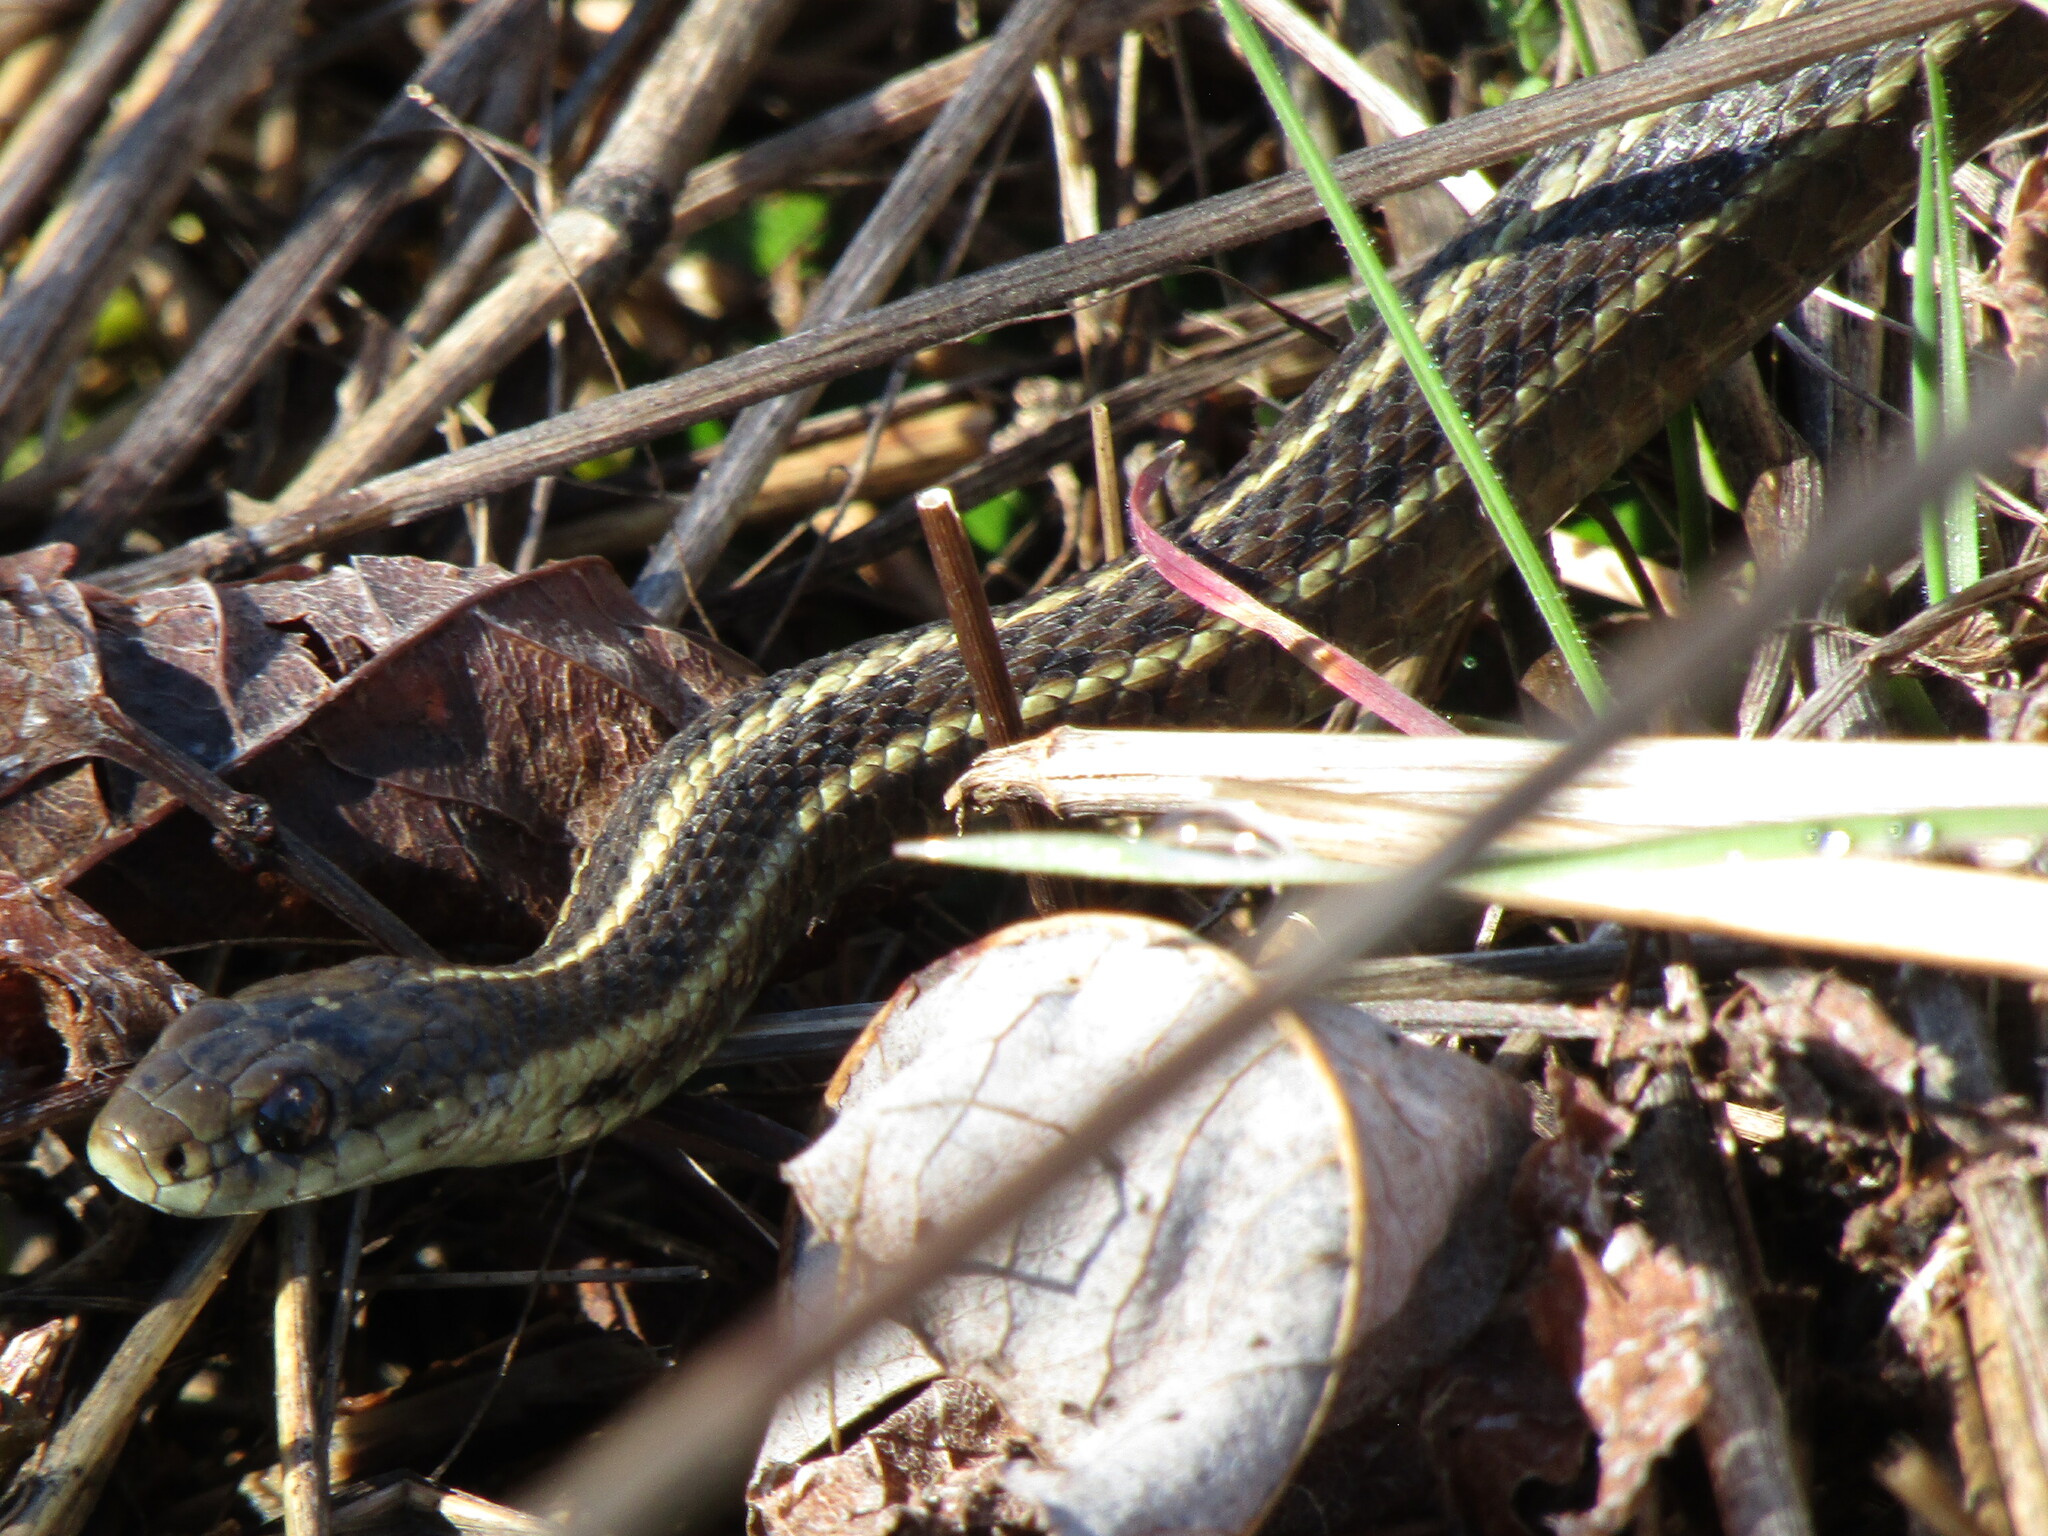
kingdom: Animalia
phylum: Chordata
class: Squamata
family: Colubridae
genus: Thamnophis
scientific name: Thamnophis ordinoides
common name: Northwestern garter snake
